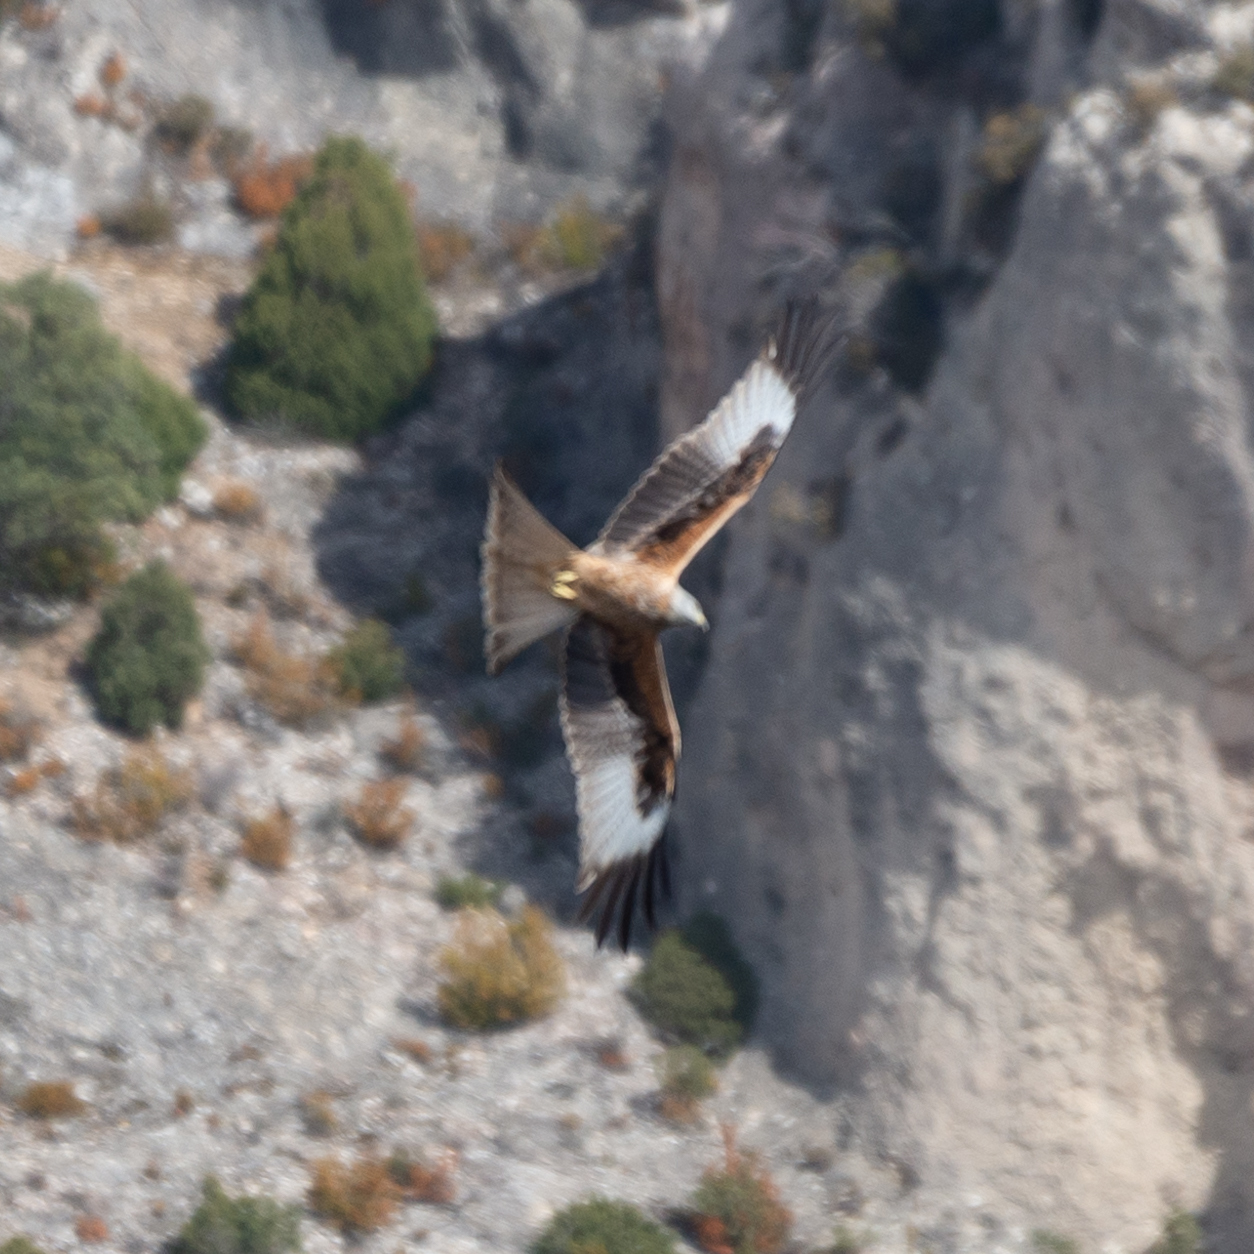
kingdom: Animalia
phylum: Chordata
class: Aves
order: Accipitriformes
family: Accipitridae
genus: Milvus
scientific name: Milvus milvus
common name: Red kite
